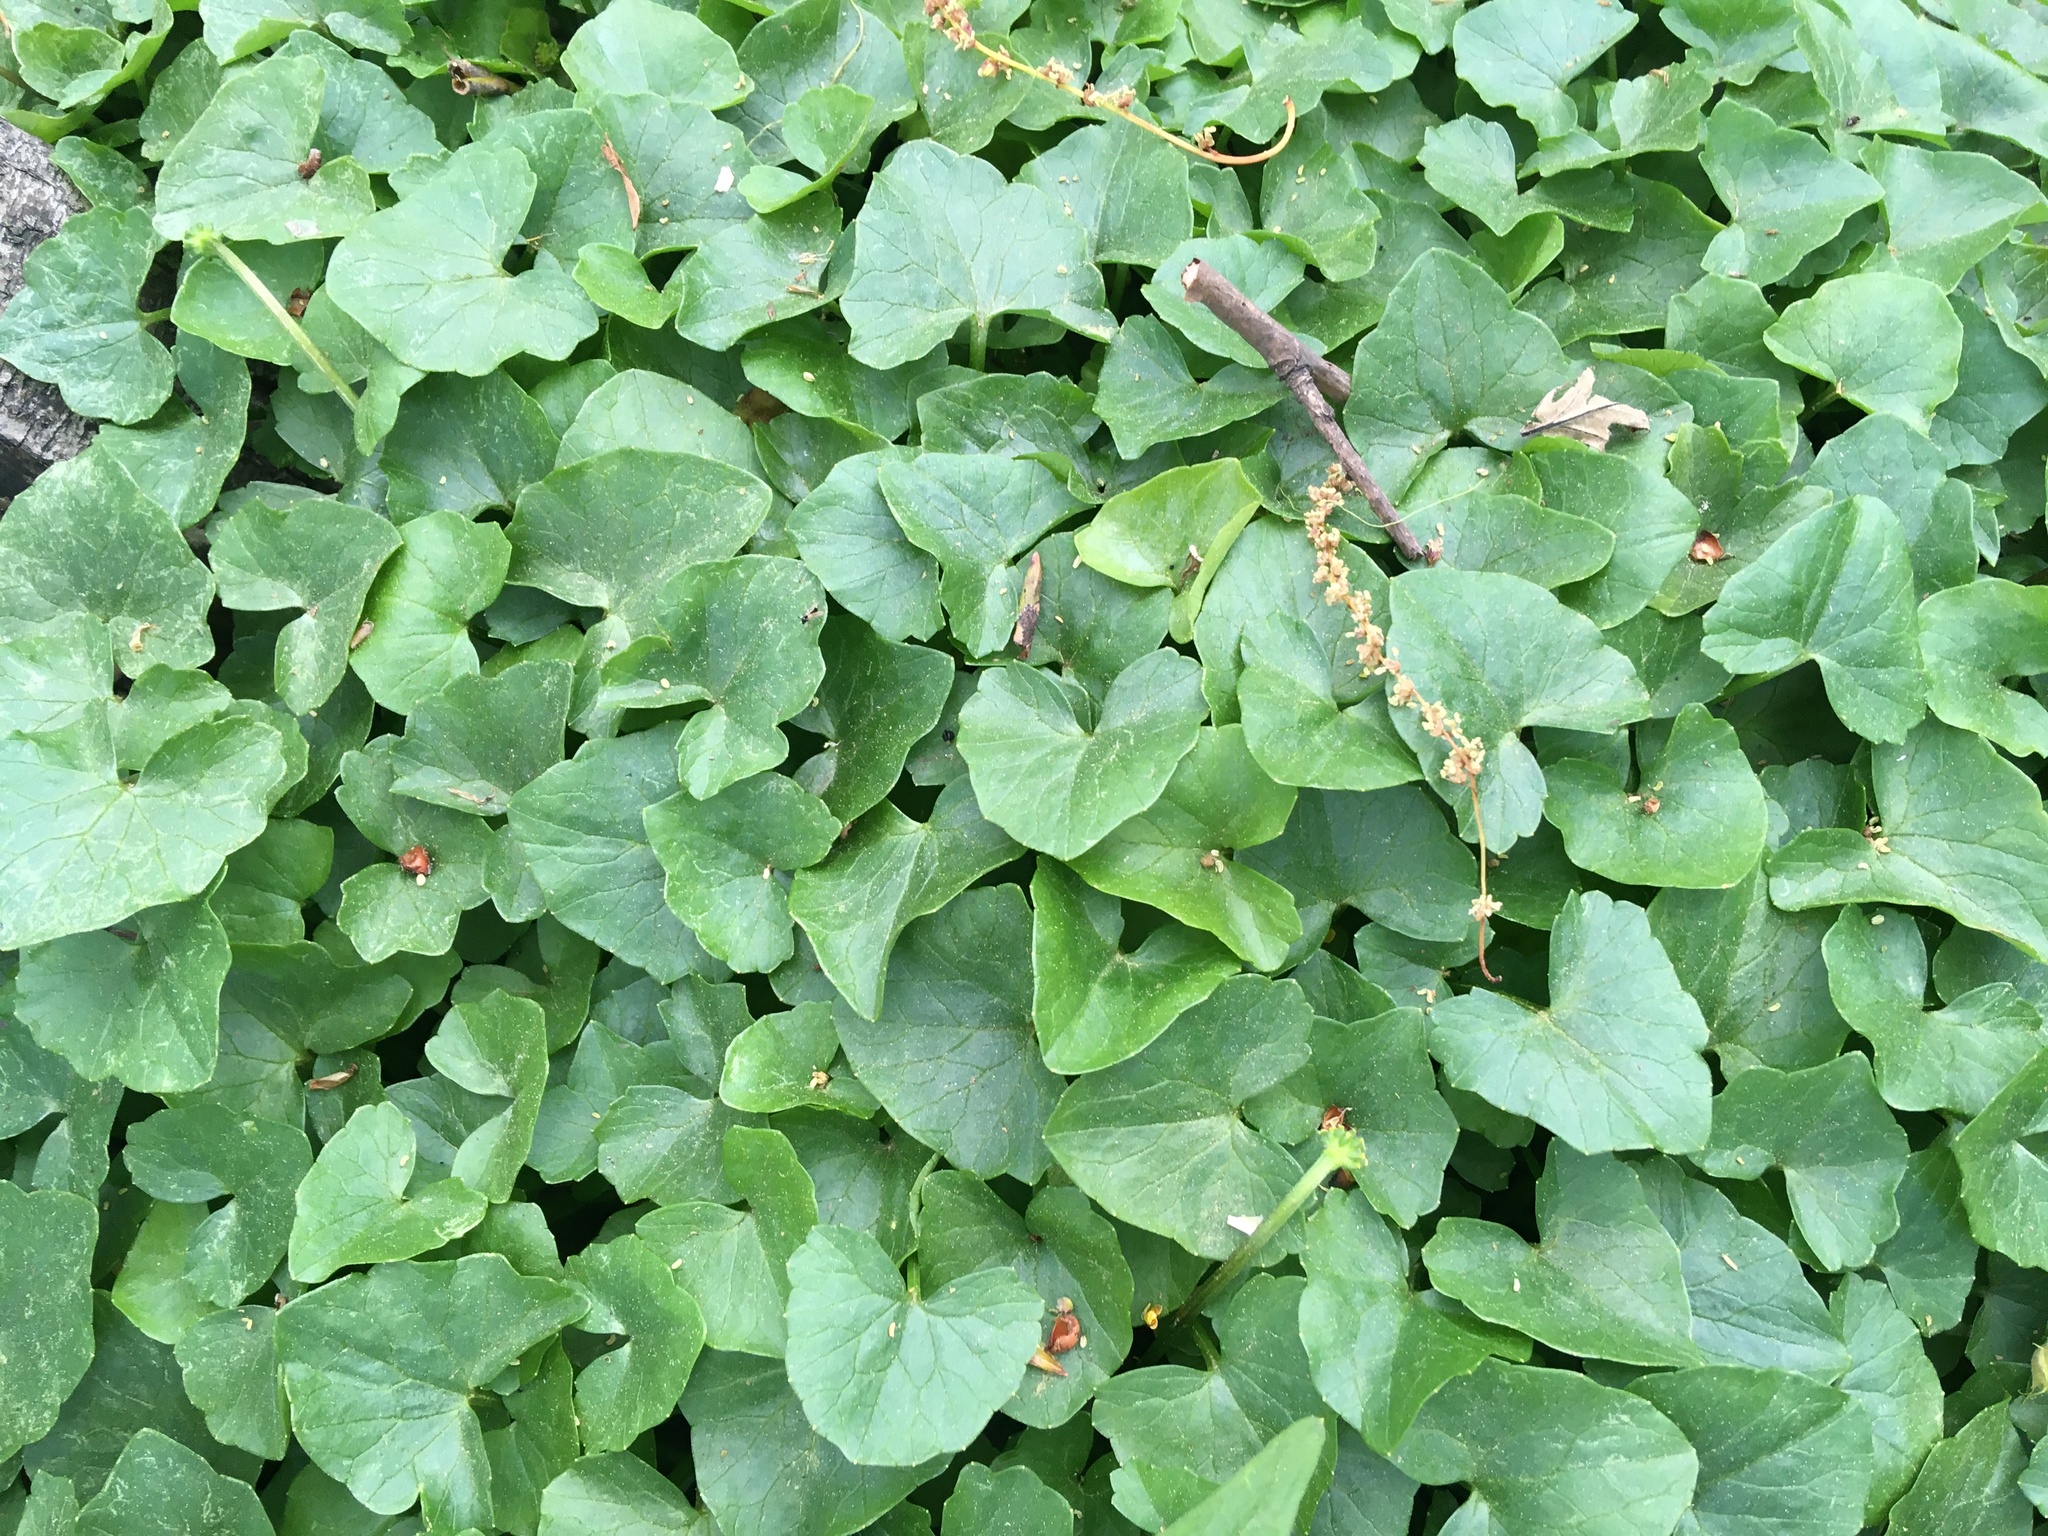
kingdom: Plantae
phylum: Tracheophyta
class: Magnoliopsida
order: Ranunculales
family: Ranunculaceae
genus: Ficaria
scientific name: Ficaria verna
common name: Lesser celandine
